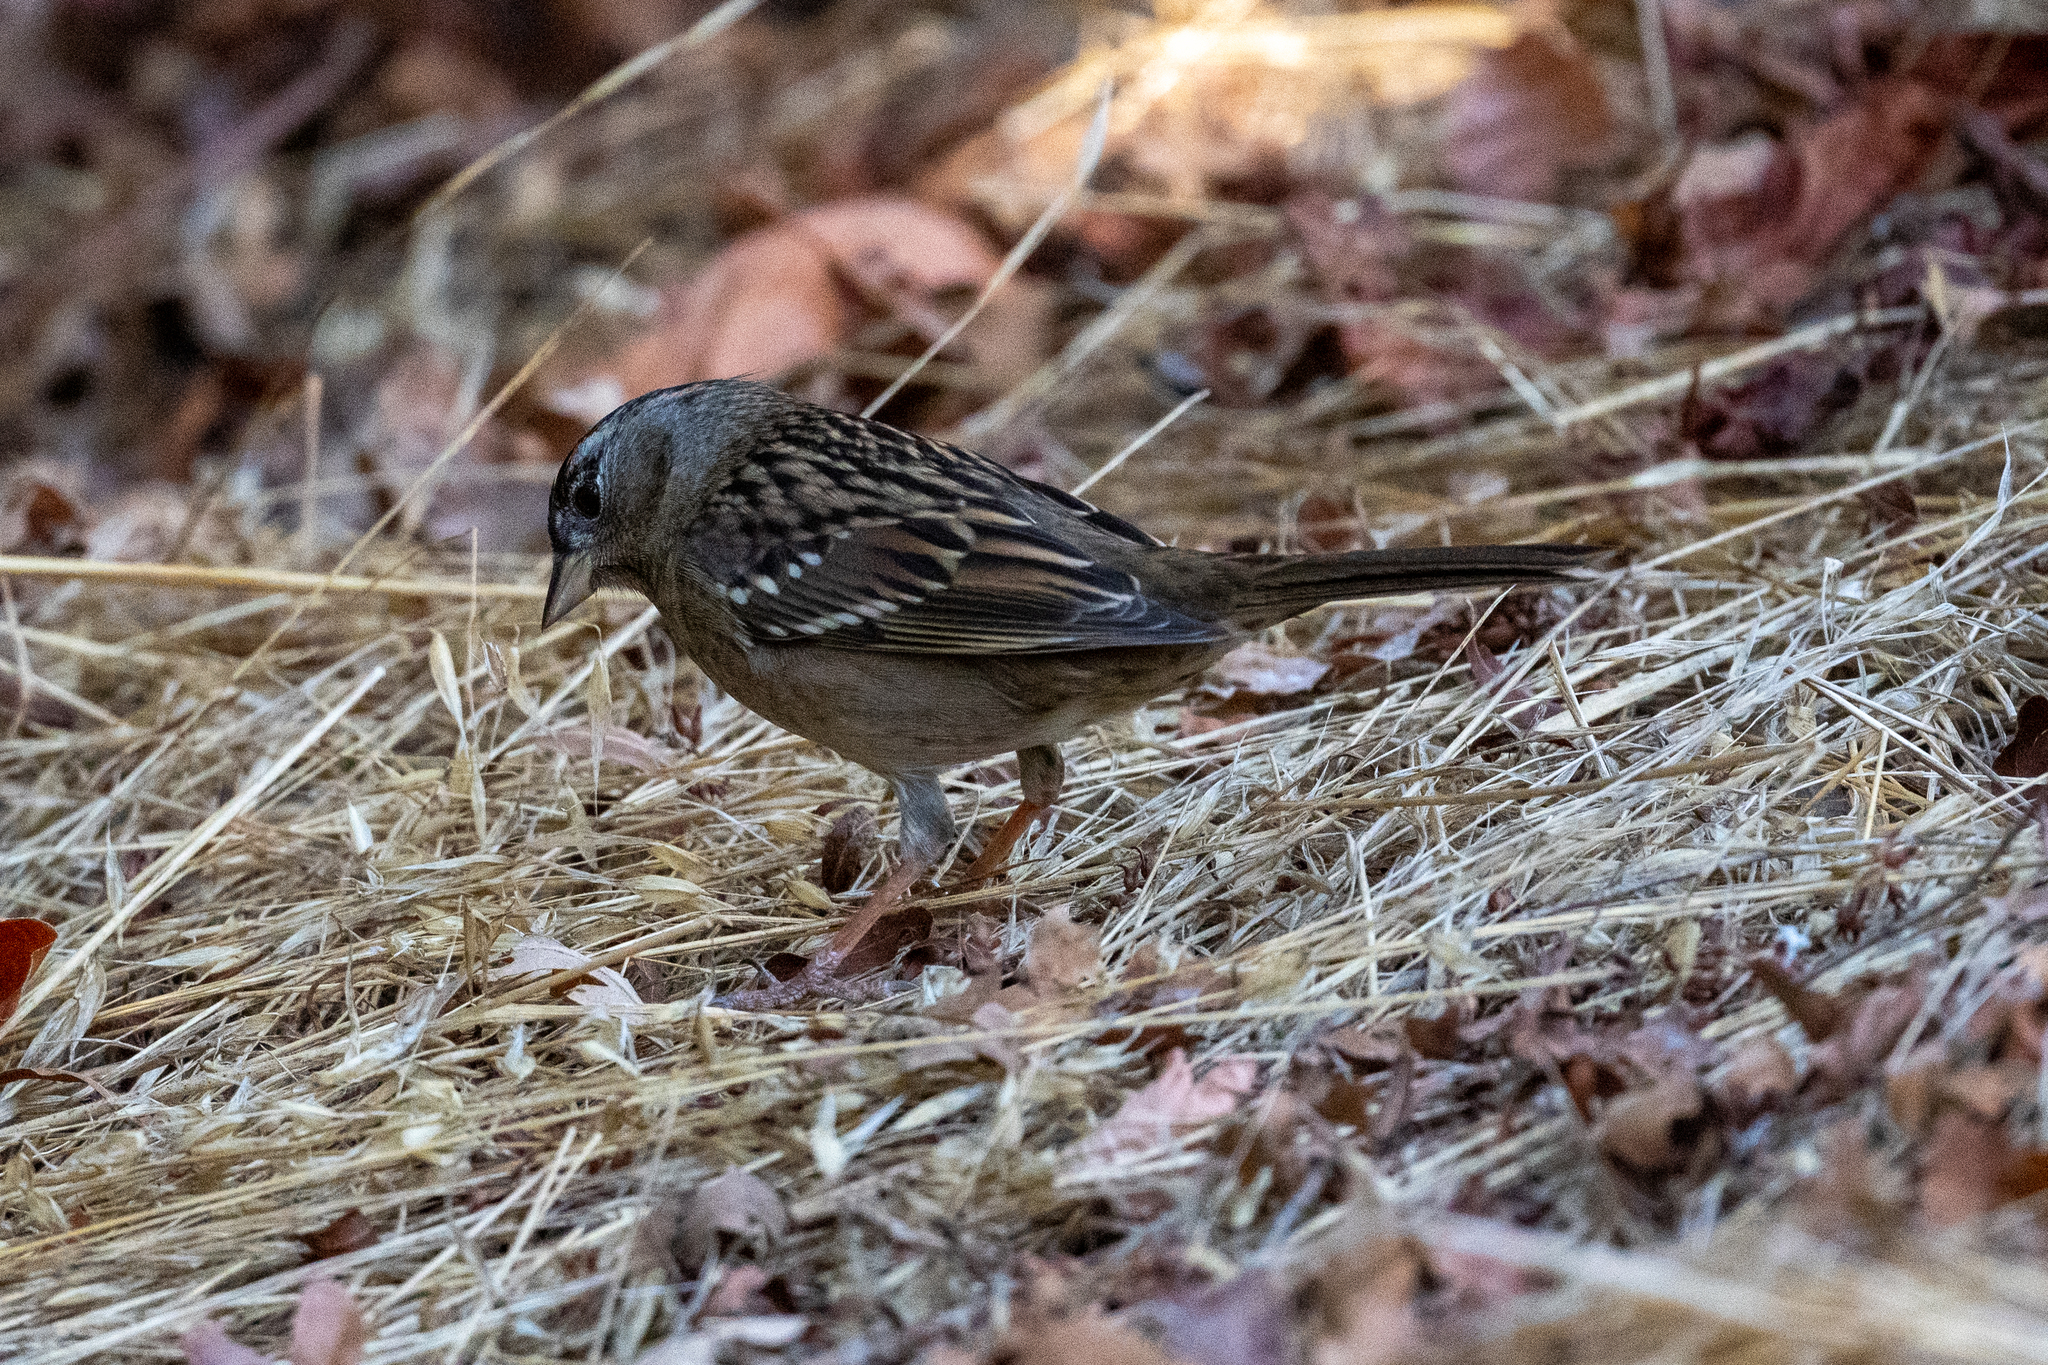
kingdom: Animalia
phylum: Chordata
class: Aves
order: Passeriformes
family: Passerellidae
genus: Zonotrichia
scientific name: Zonotrichia atricapilla
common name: Golden-crowned sparrow
